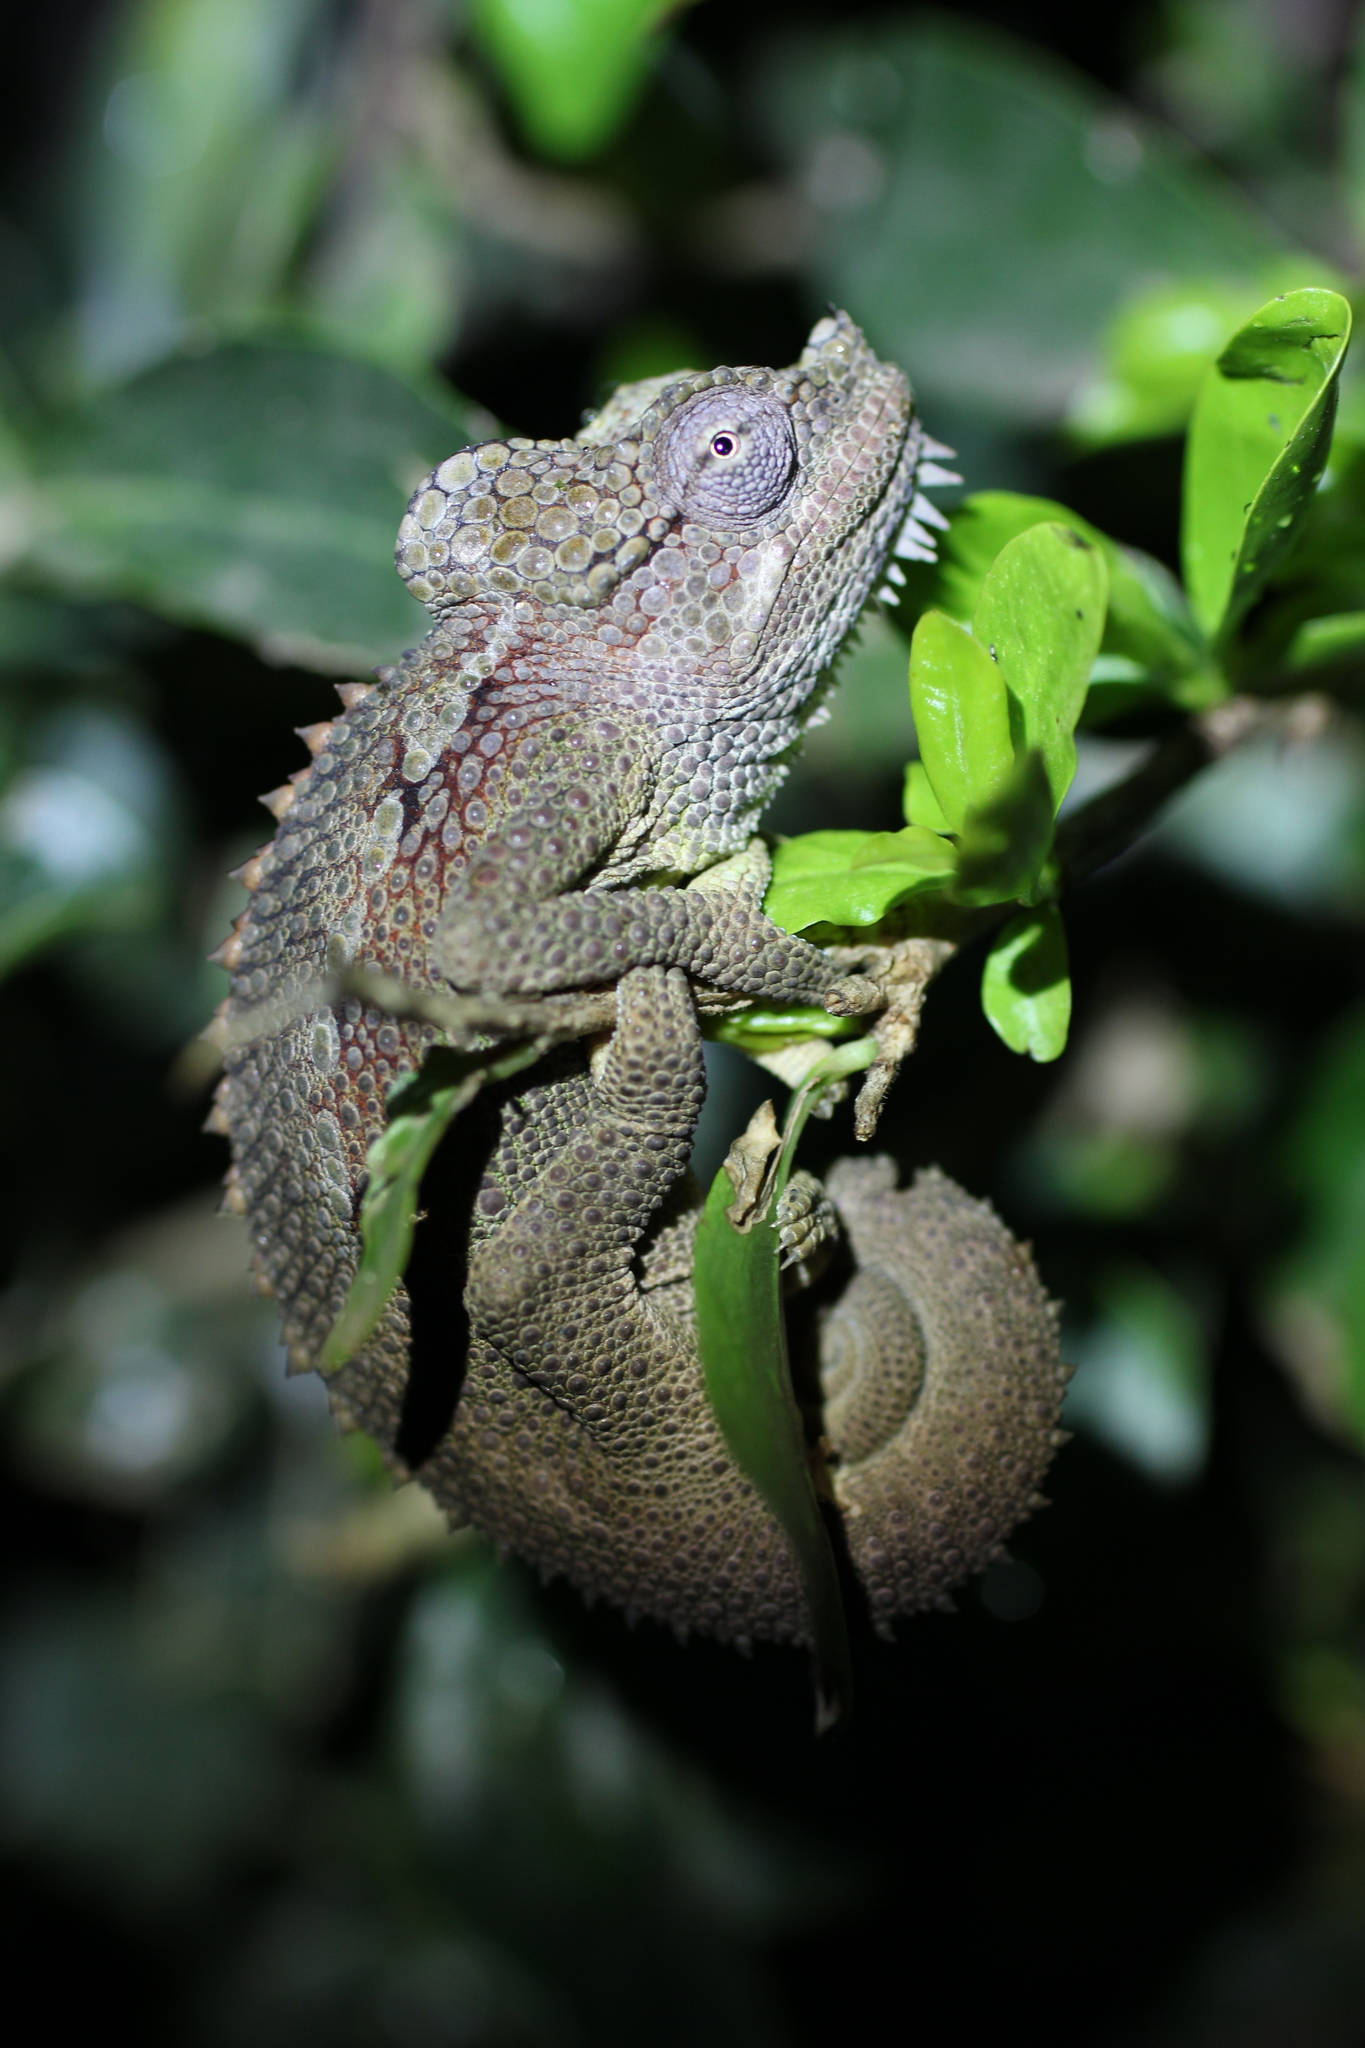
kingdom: Animalia
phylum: Chordata
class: Squamata
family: Chamaeleonidae
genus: Trioceros
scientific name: Trioceros hoehnelii
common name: High-casqued chameleon
